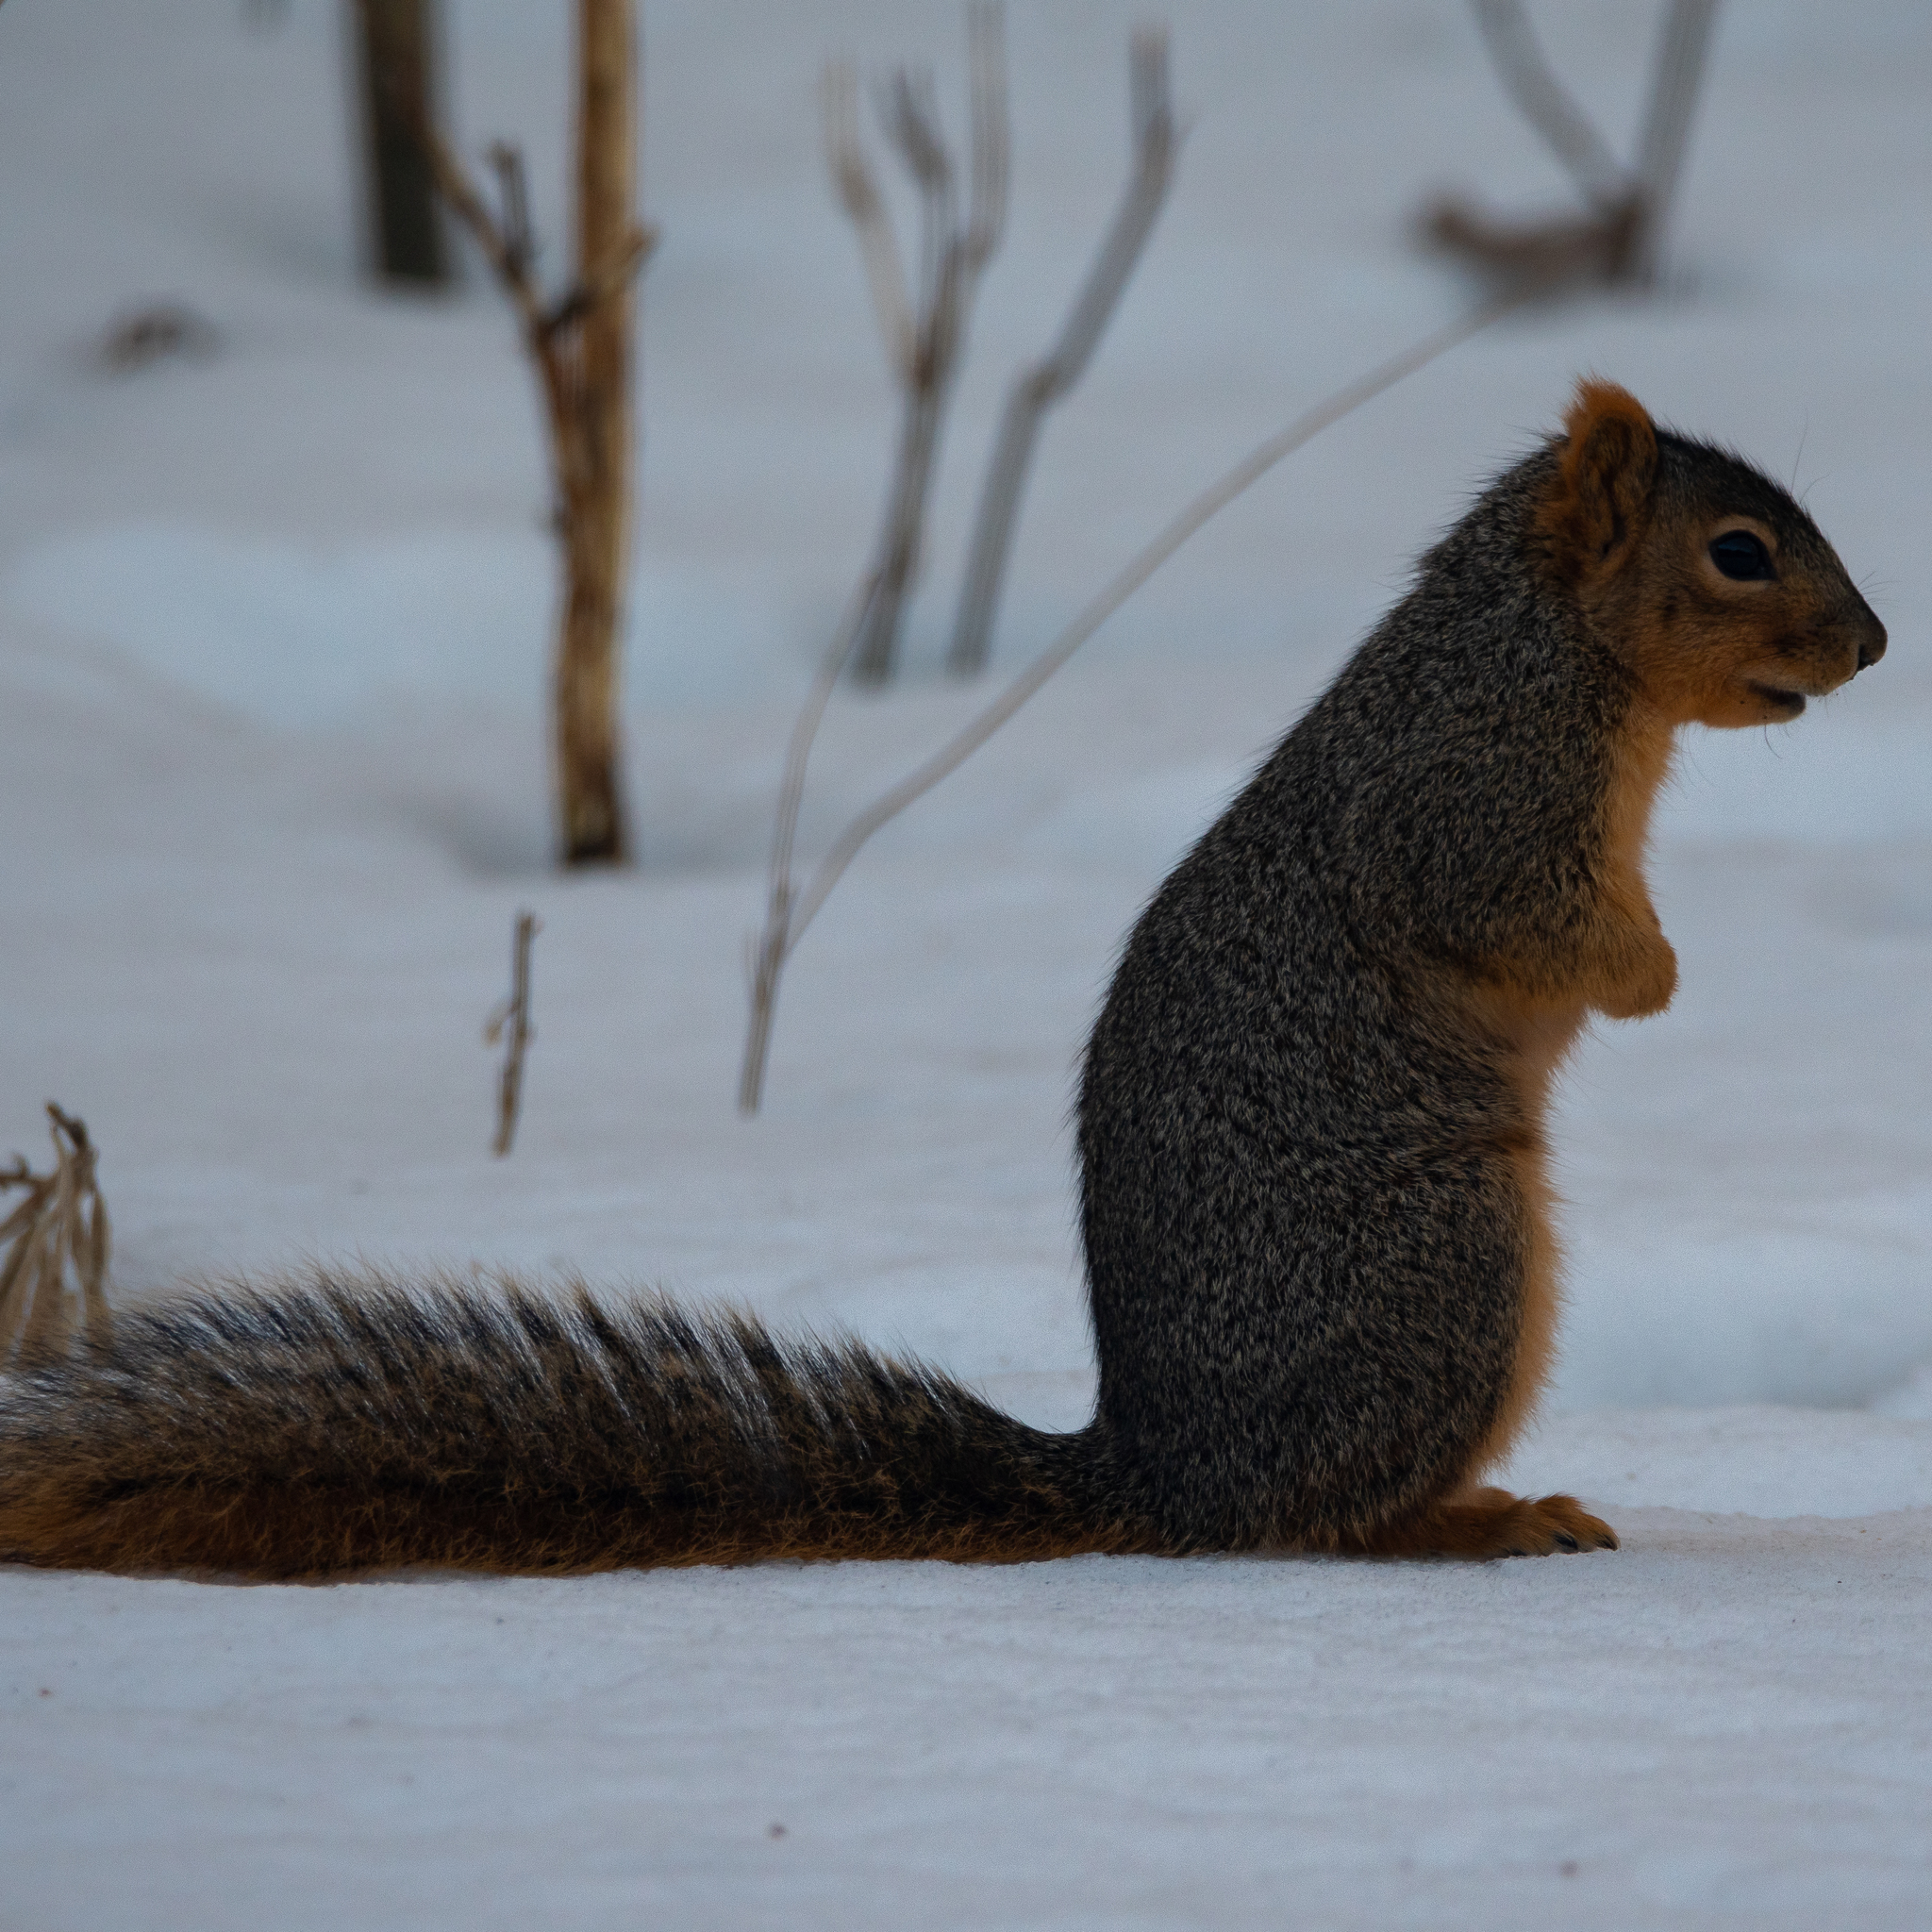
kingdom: Animalia
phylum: Chordata
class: Mammalia
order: Rodentia
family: Sciuridae
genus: Sciurus
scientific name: Sciurus niger
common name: Fox squirrel
